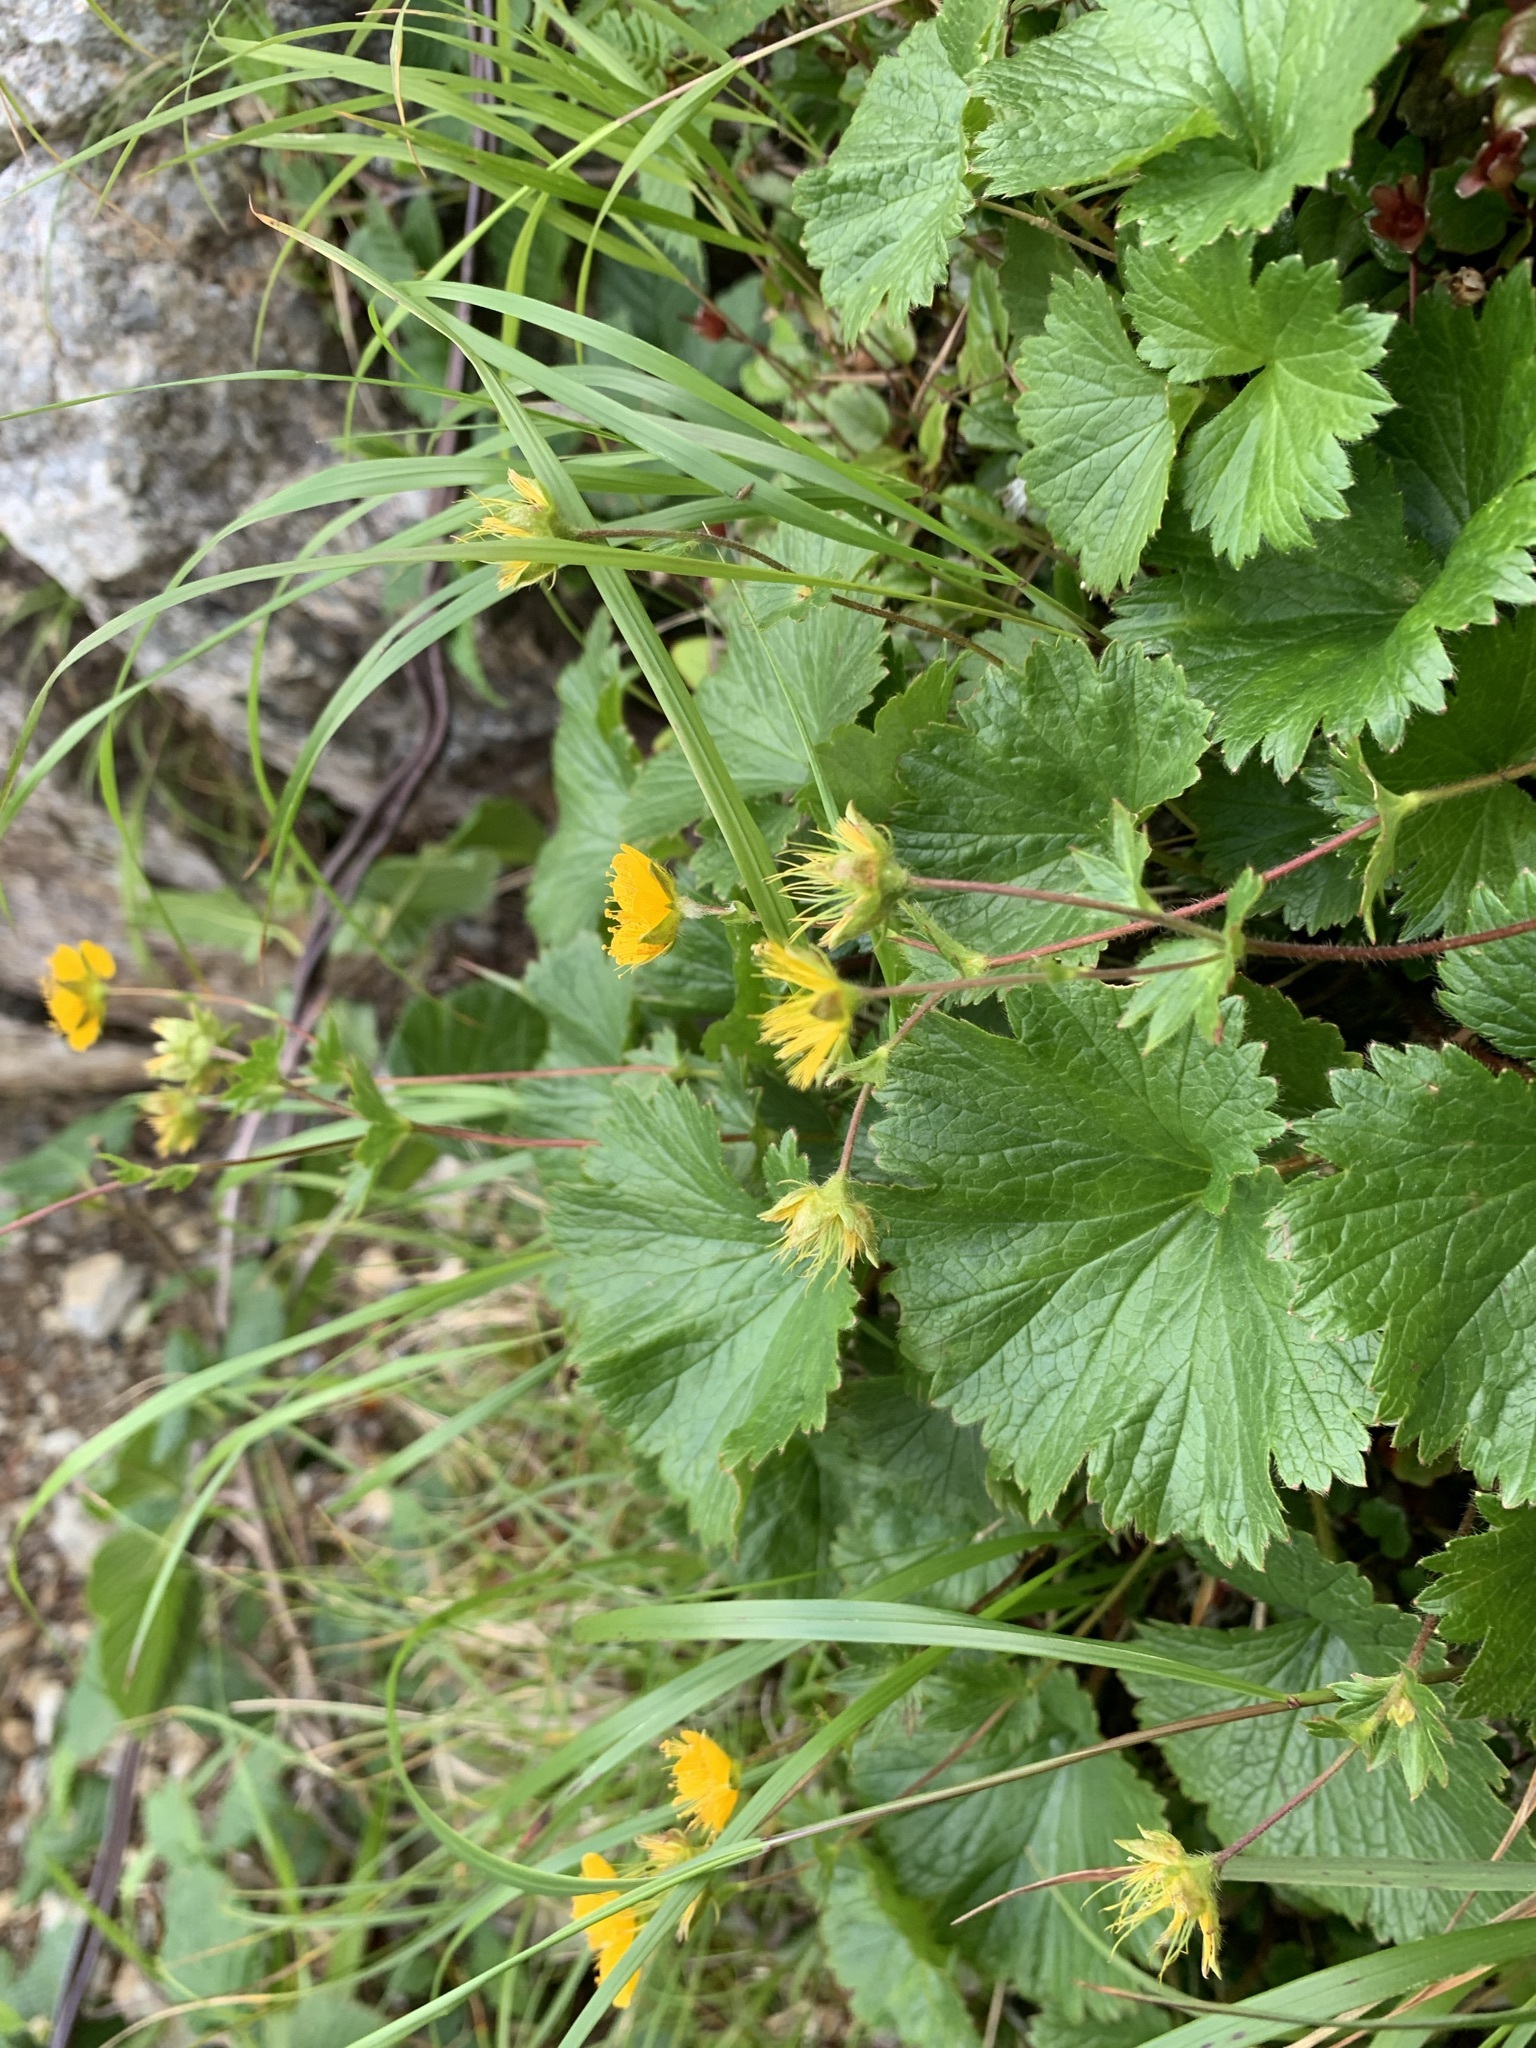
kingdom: Plantae
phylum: Tracheophyta
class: Magnoliopsida
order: Rosales
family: Rosaceae
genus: Geum
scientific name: Geum calthifolium
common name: Caltha-leaved avens
